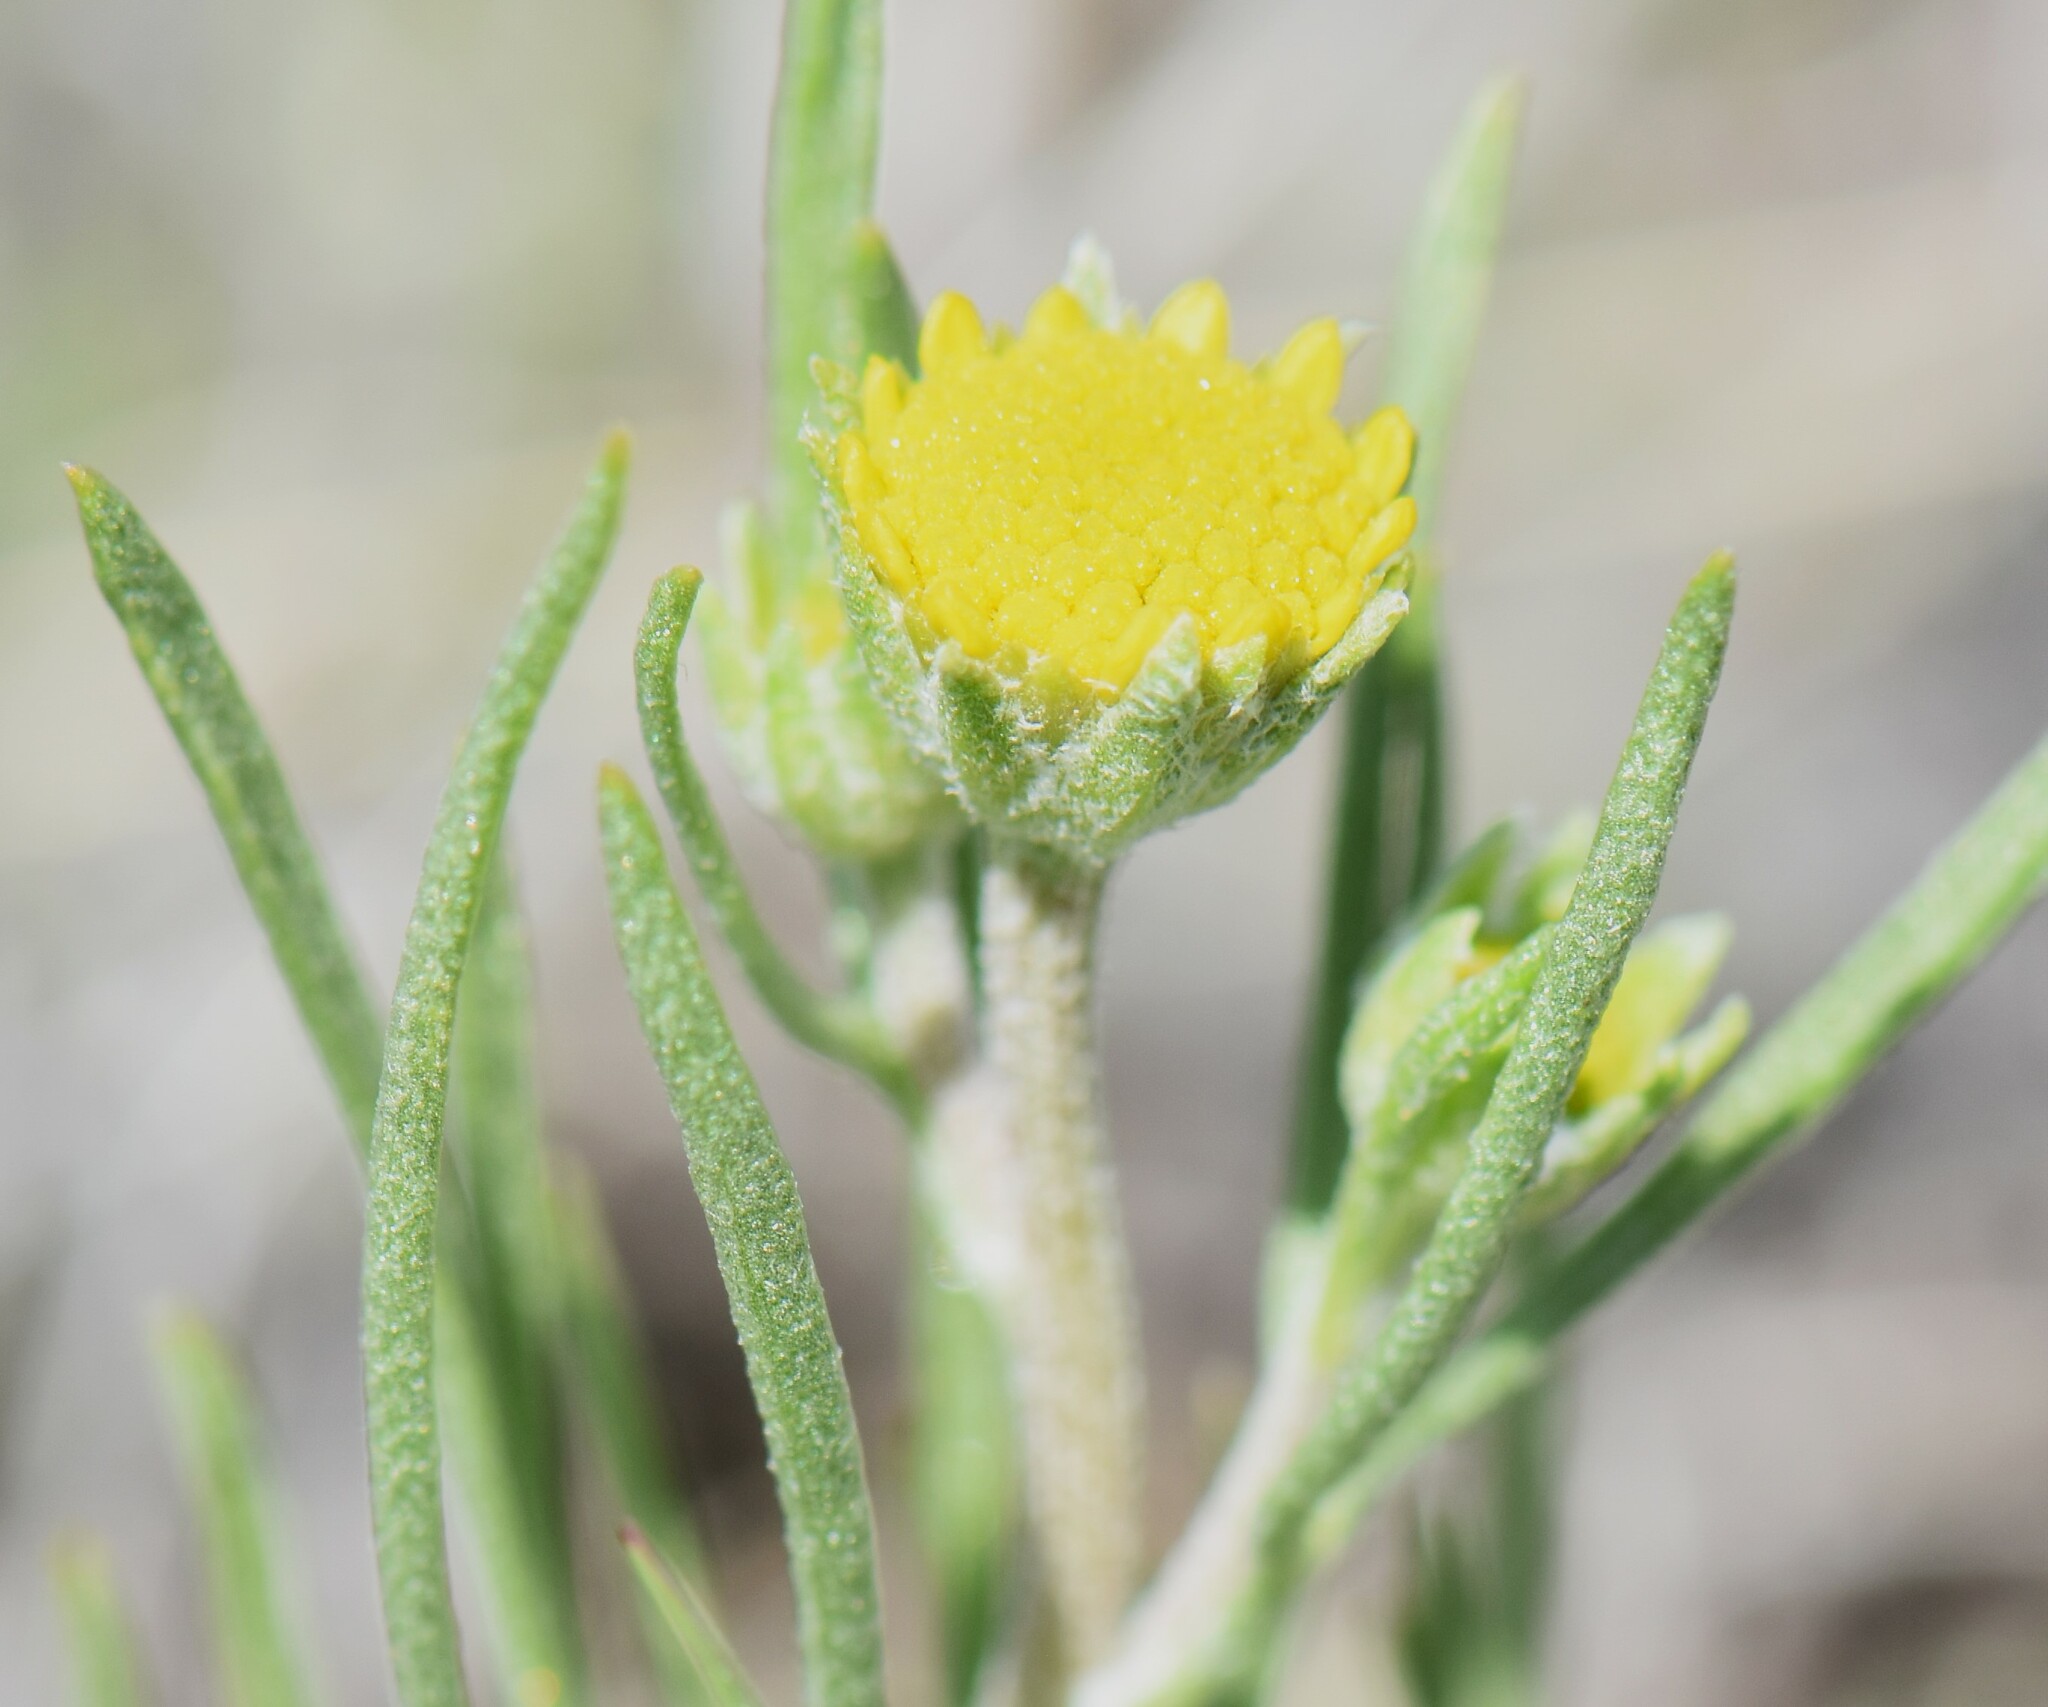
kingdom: Plantae
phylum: Tracheophyta
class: Magnoliopsida
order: Asterales
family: Asteraceae
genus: Hymenoxys
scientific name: Hymenoxys richardsonii
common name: Pingue rubberweed
